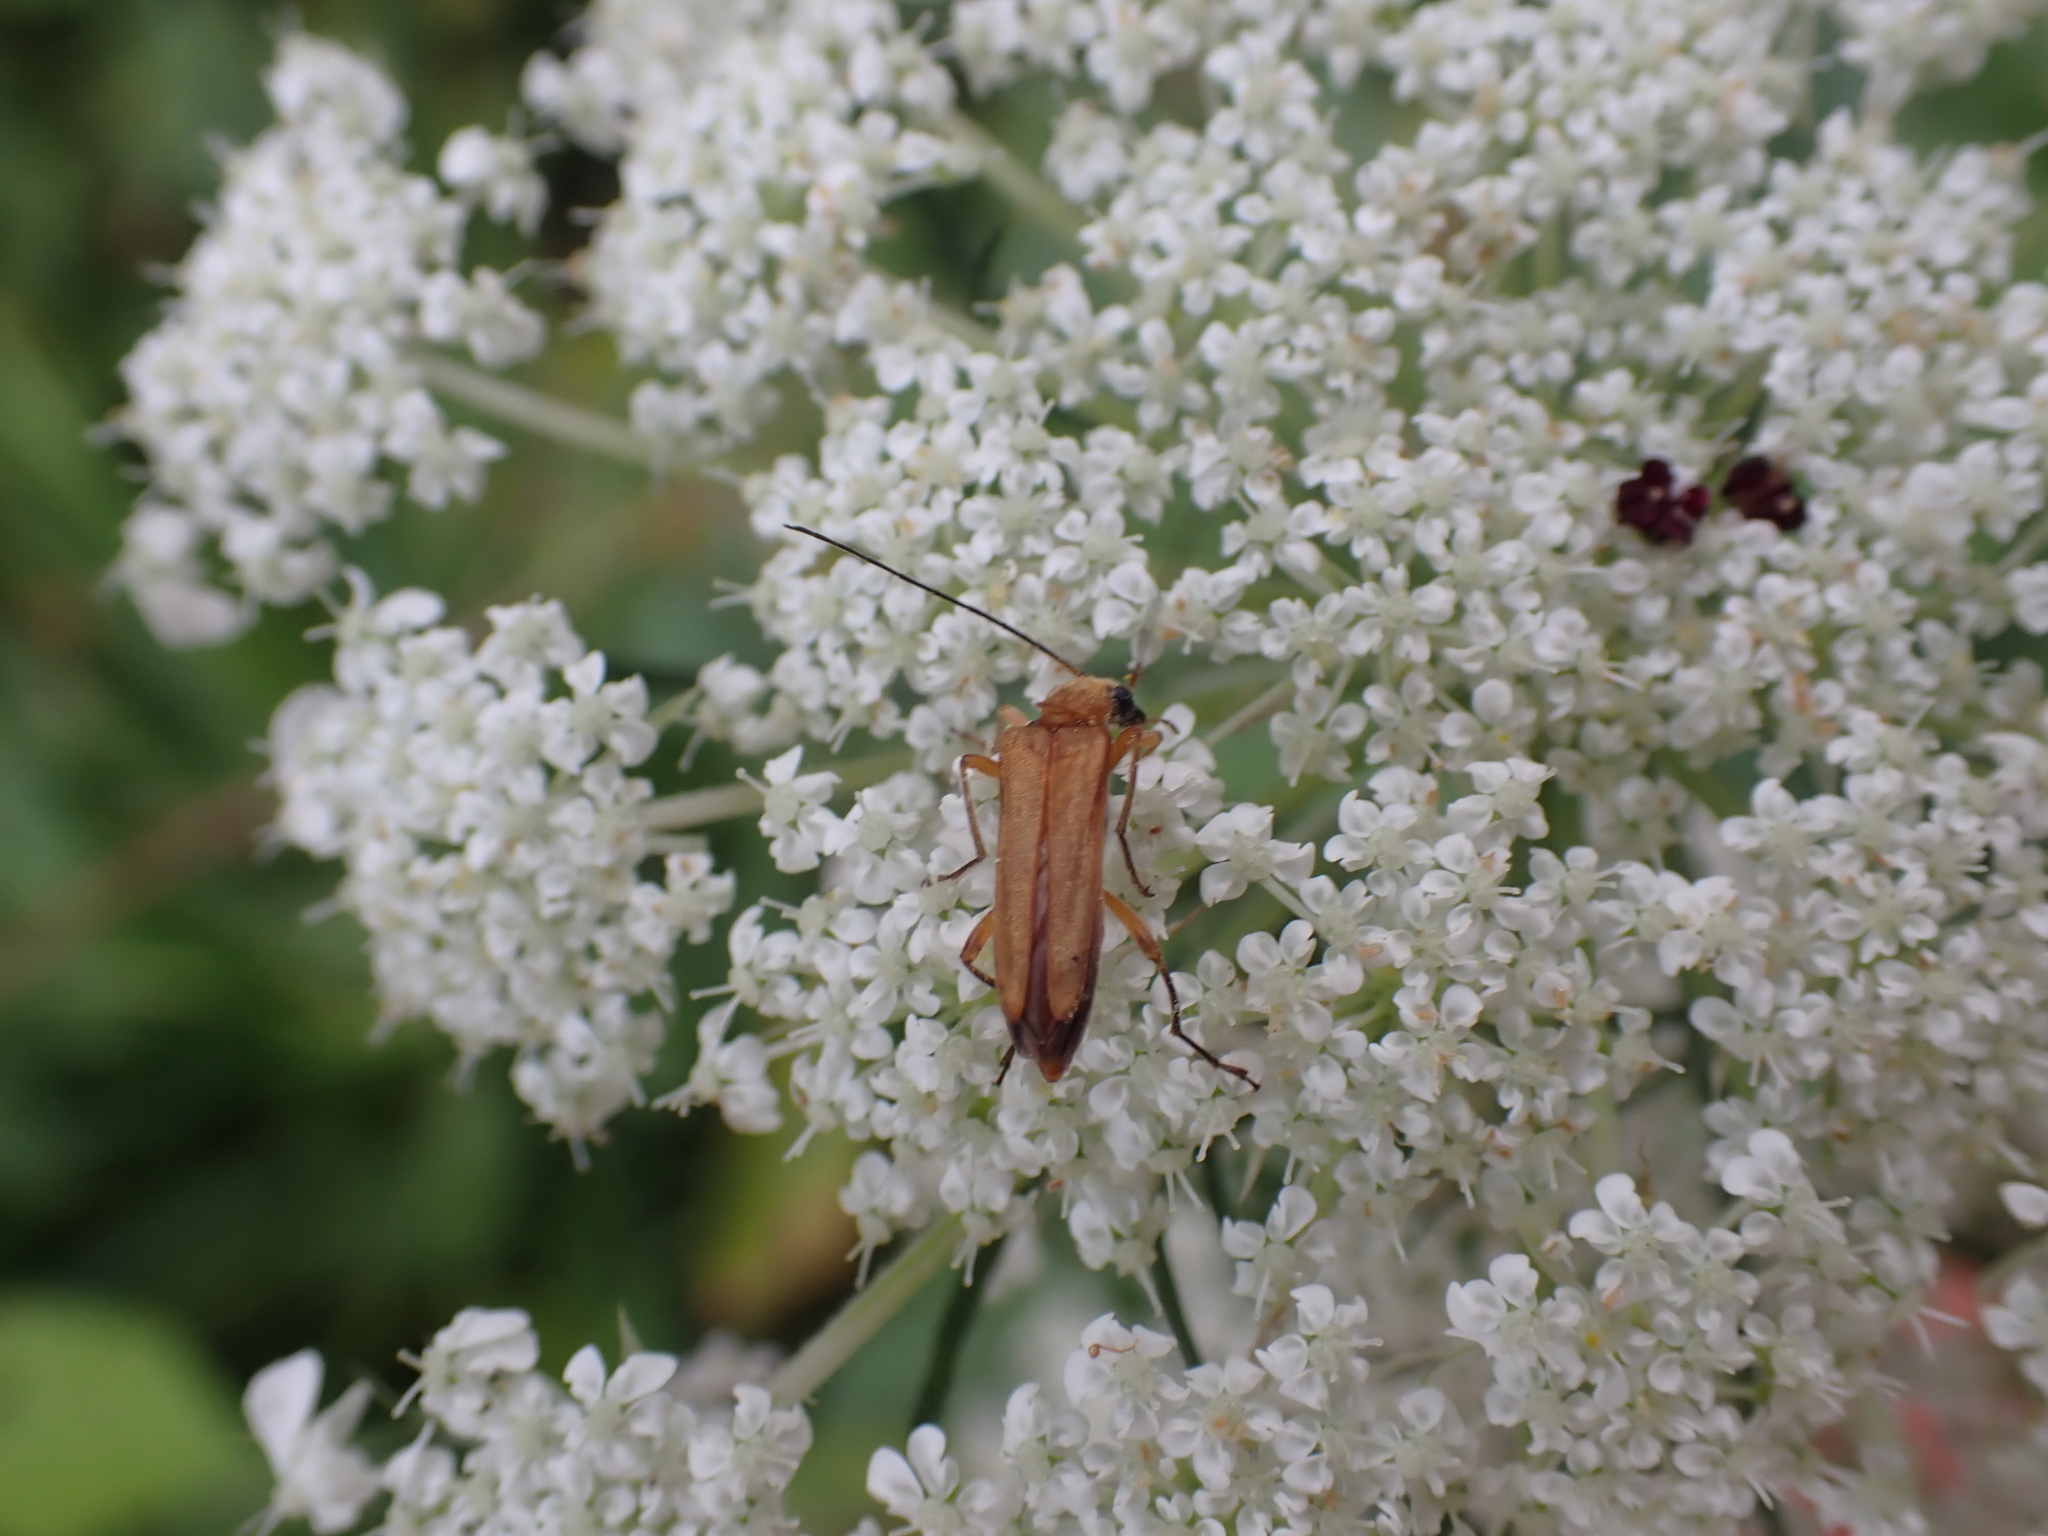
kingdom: Animalia
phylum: Arthropoda
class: Insecta
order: Coleoptera
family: Oedemeridae
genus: Oedemera
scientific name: Oedemera podagrariae
